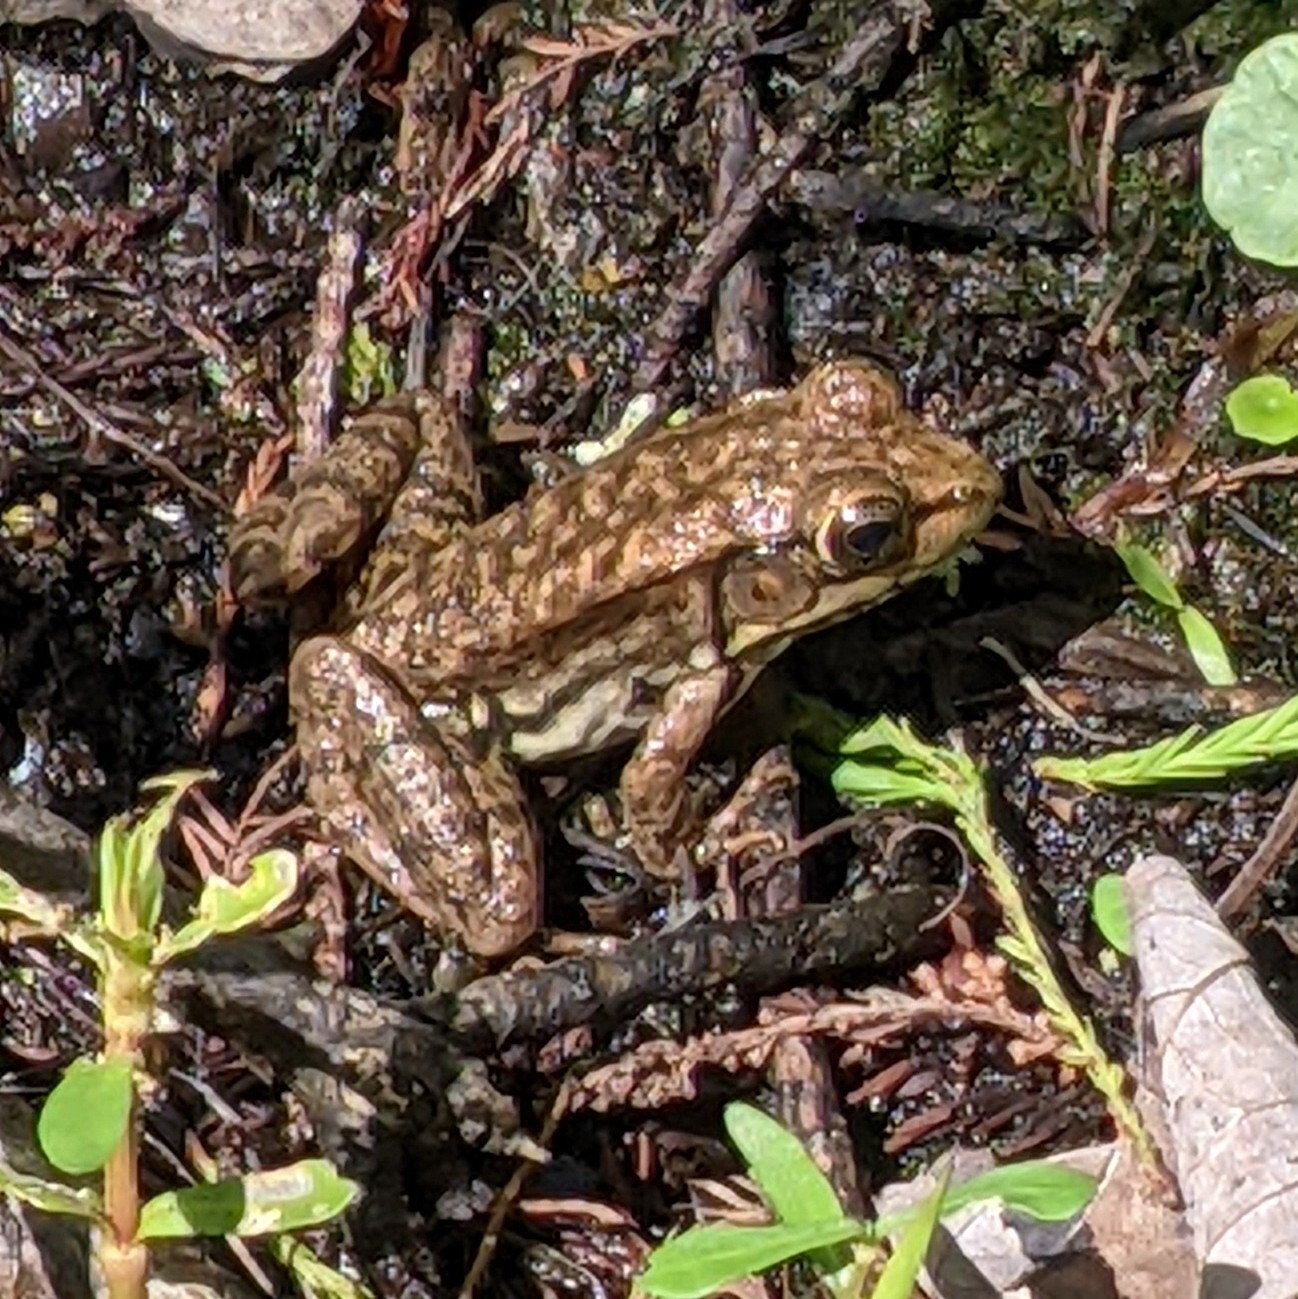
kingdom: Animalia
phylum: Chordata
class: Amphibia
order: Anura
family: Ranidae
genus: Lithobates
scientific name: Lithobates clamitans
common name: Green frog
